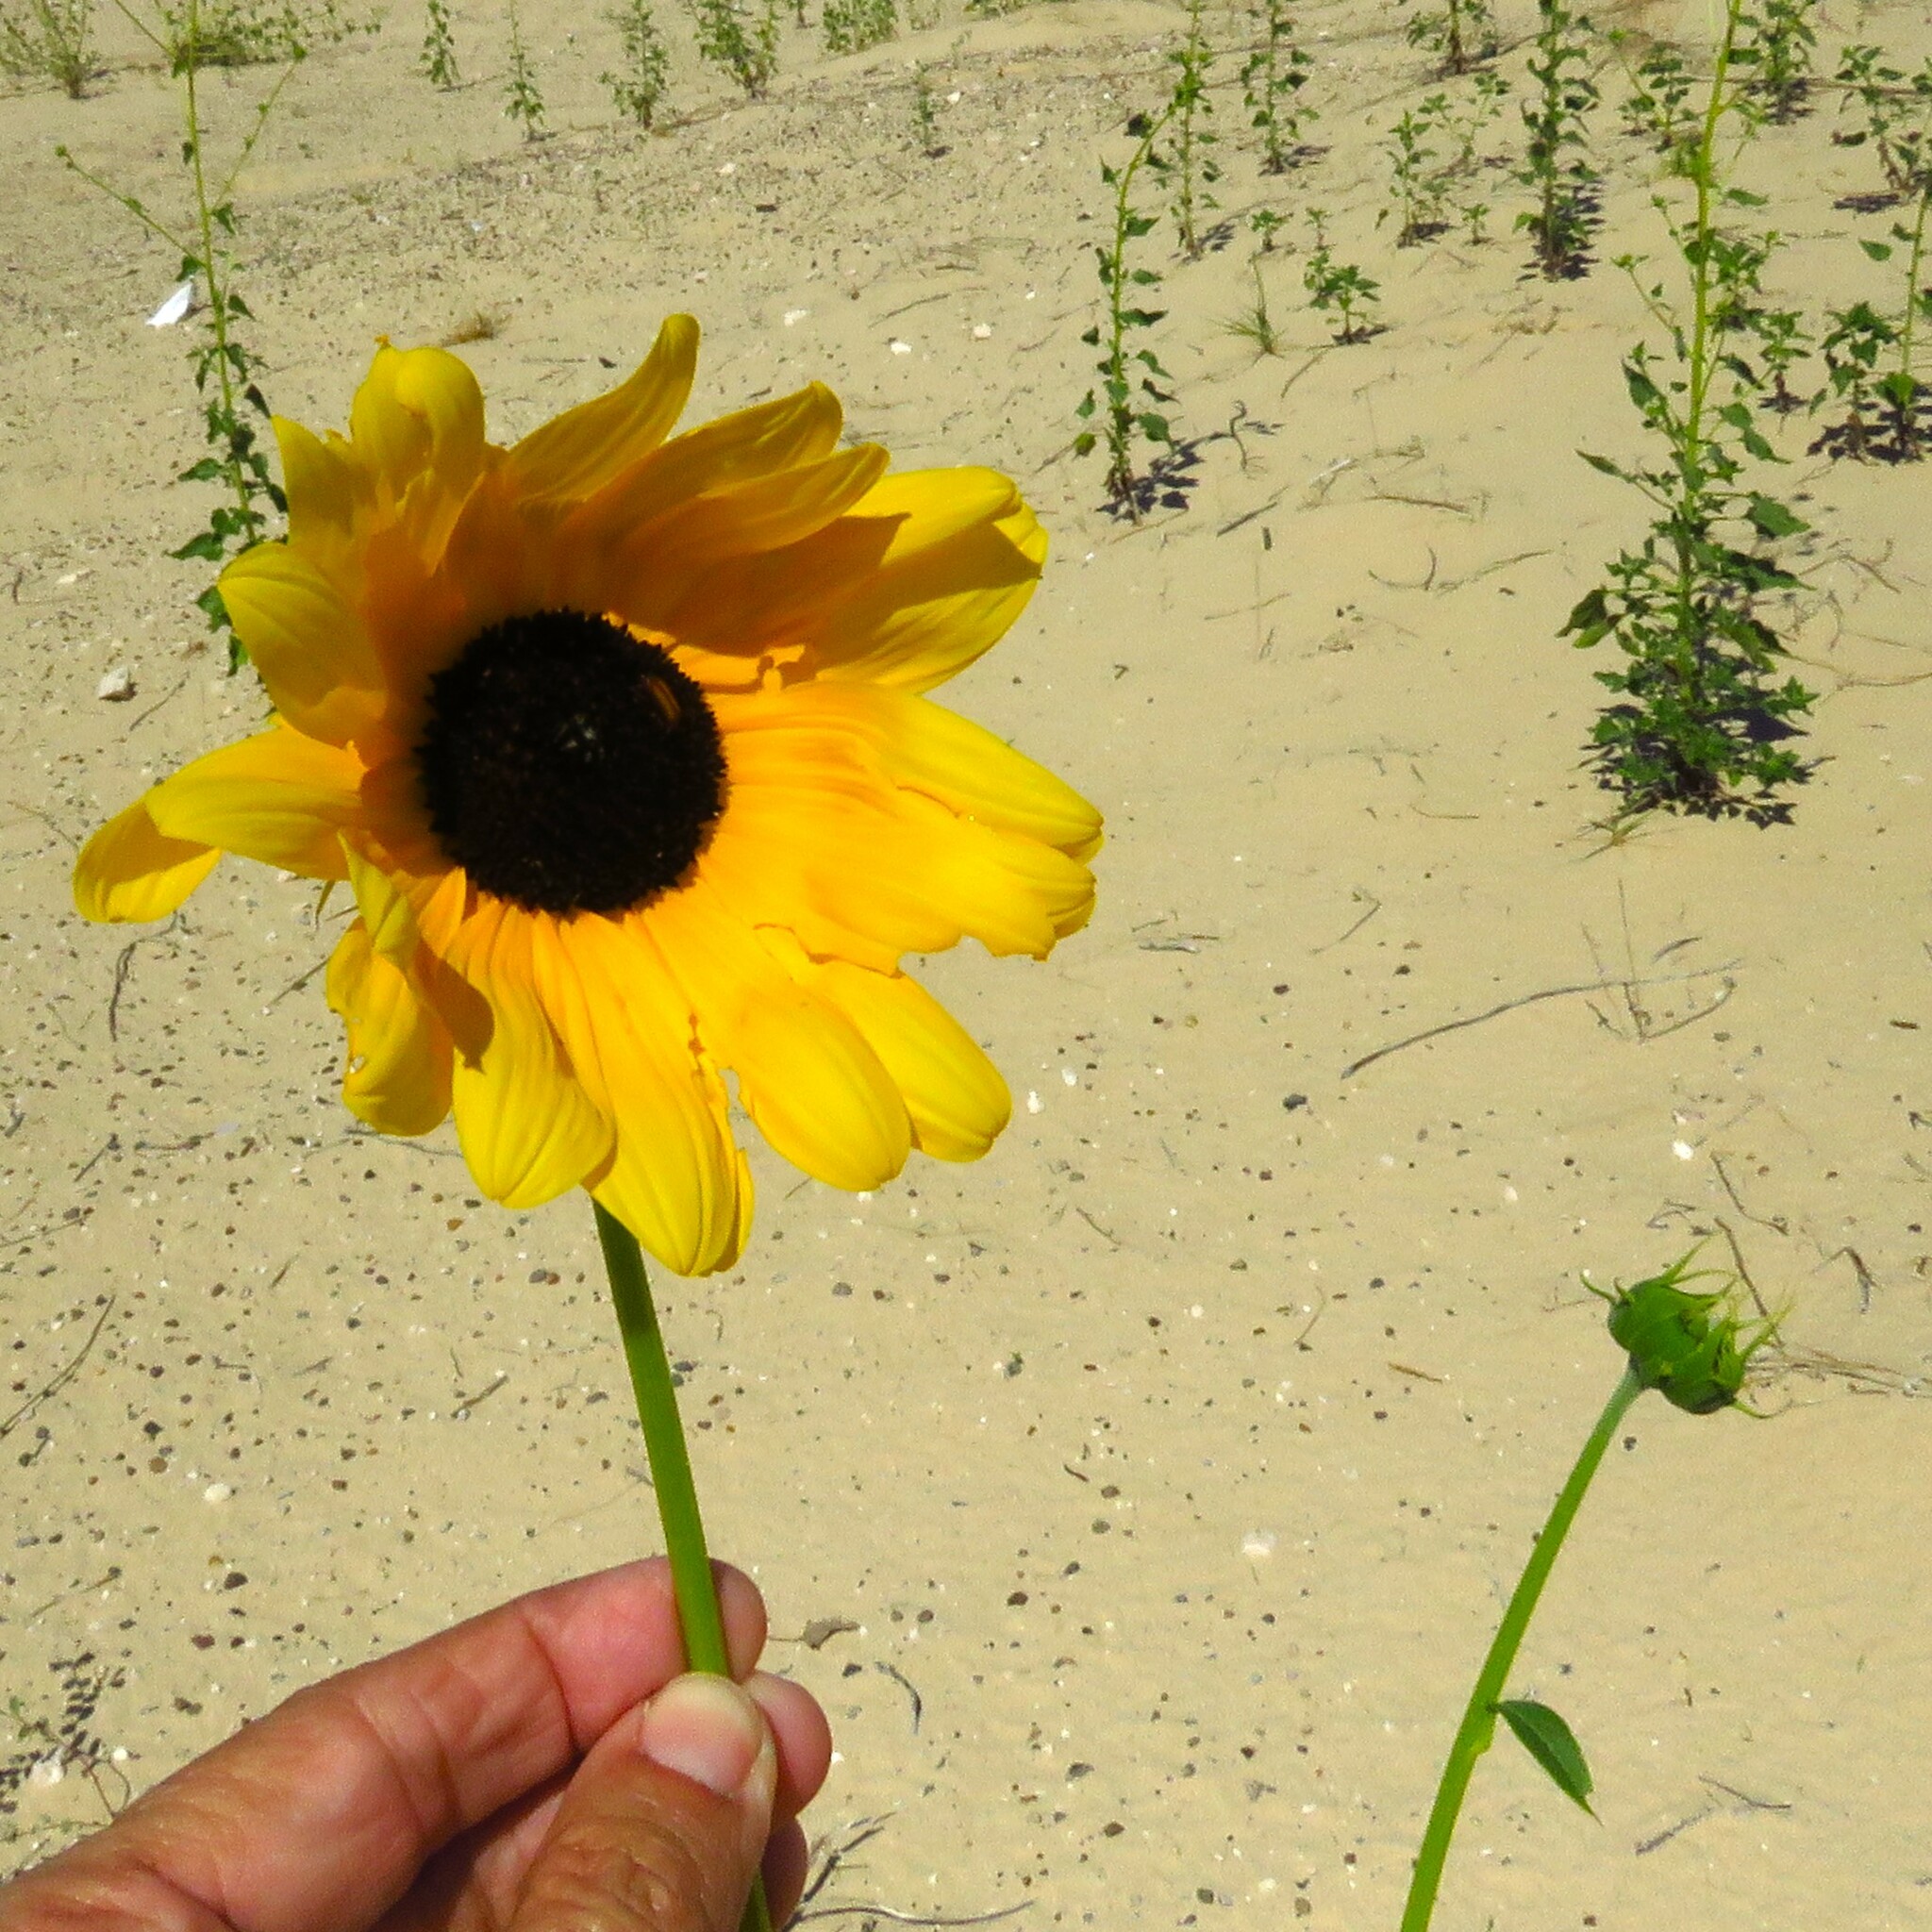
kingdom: Plantae
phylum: Tracheophyta
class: Magnoliopsida
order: Asterales
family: Asteraceae
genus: Helianthus
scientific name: Helianthus petiolaris
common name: Lesser sunflower
